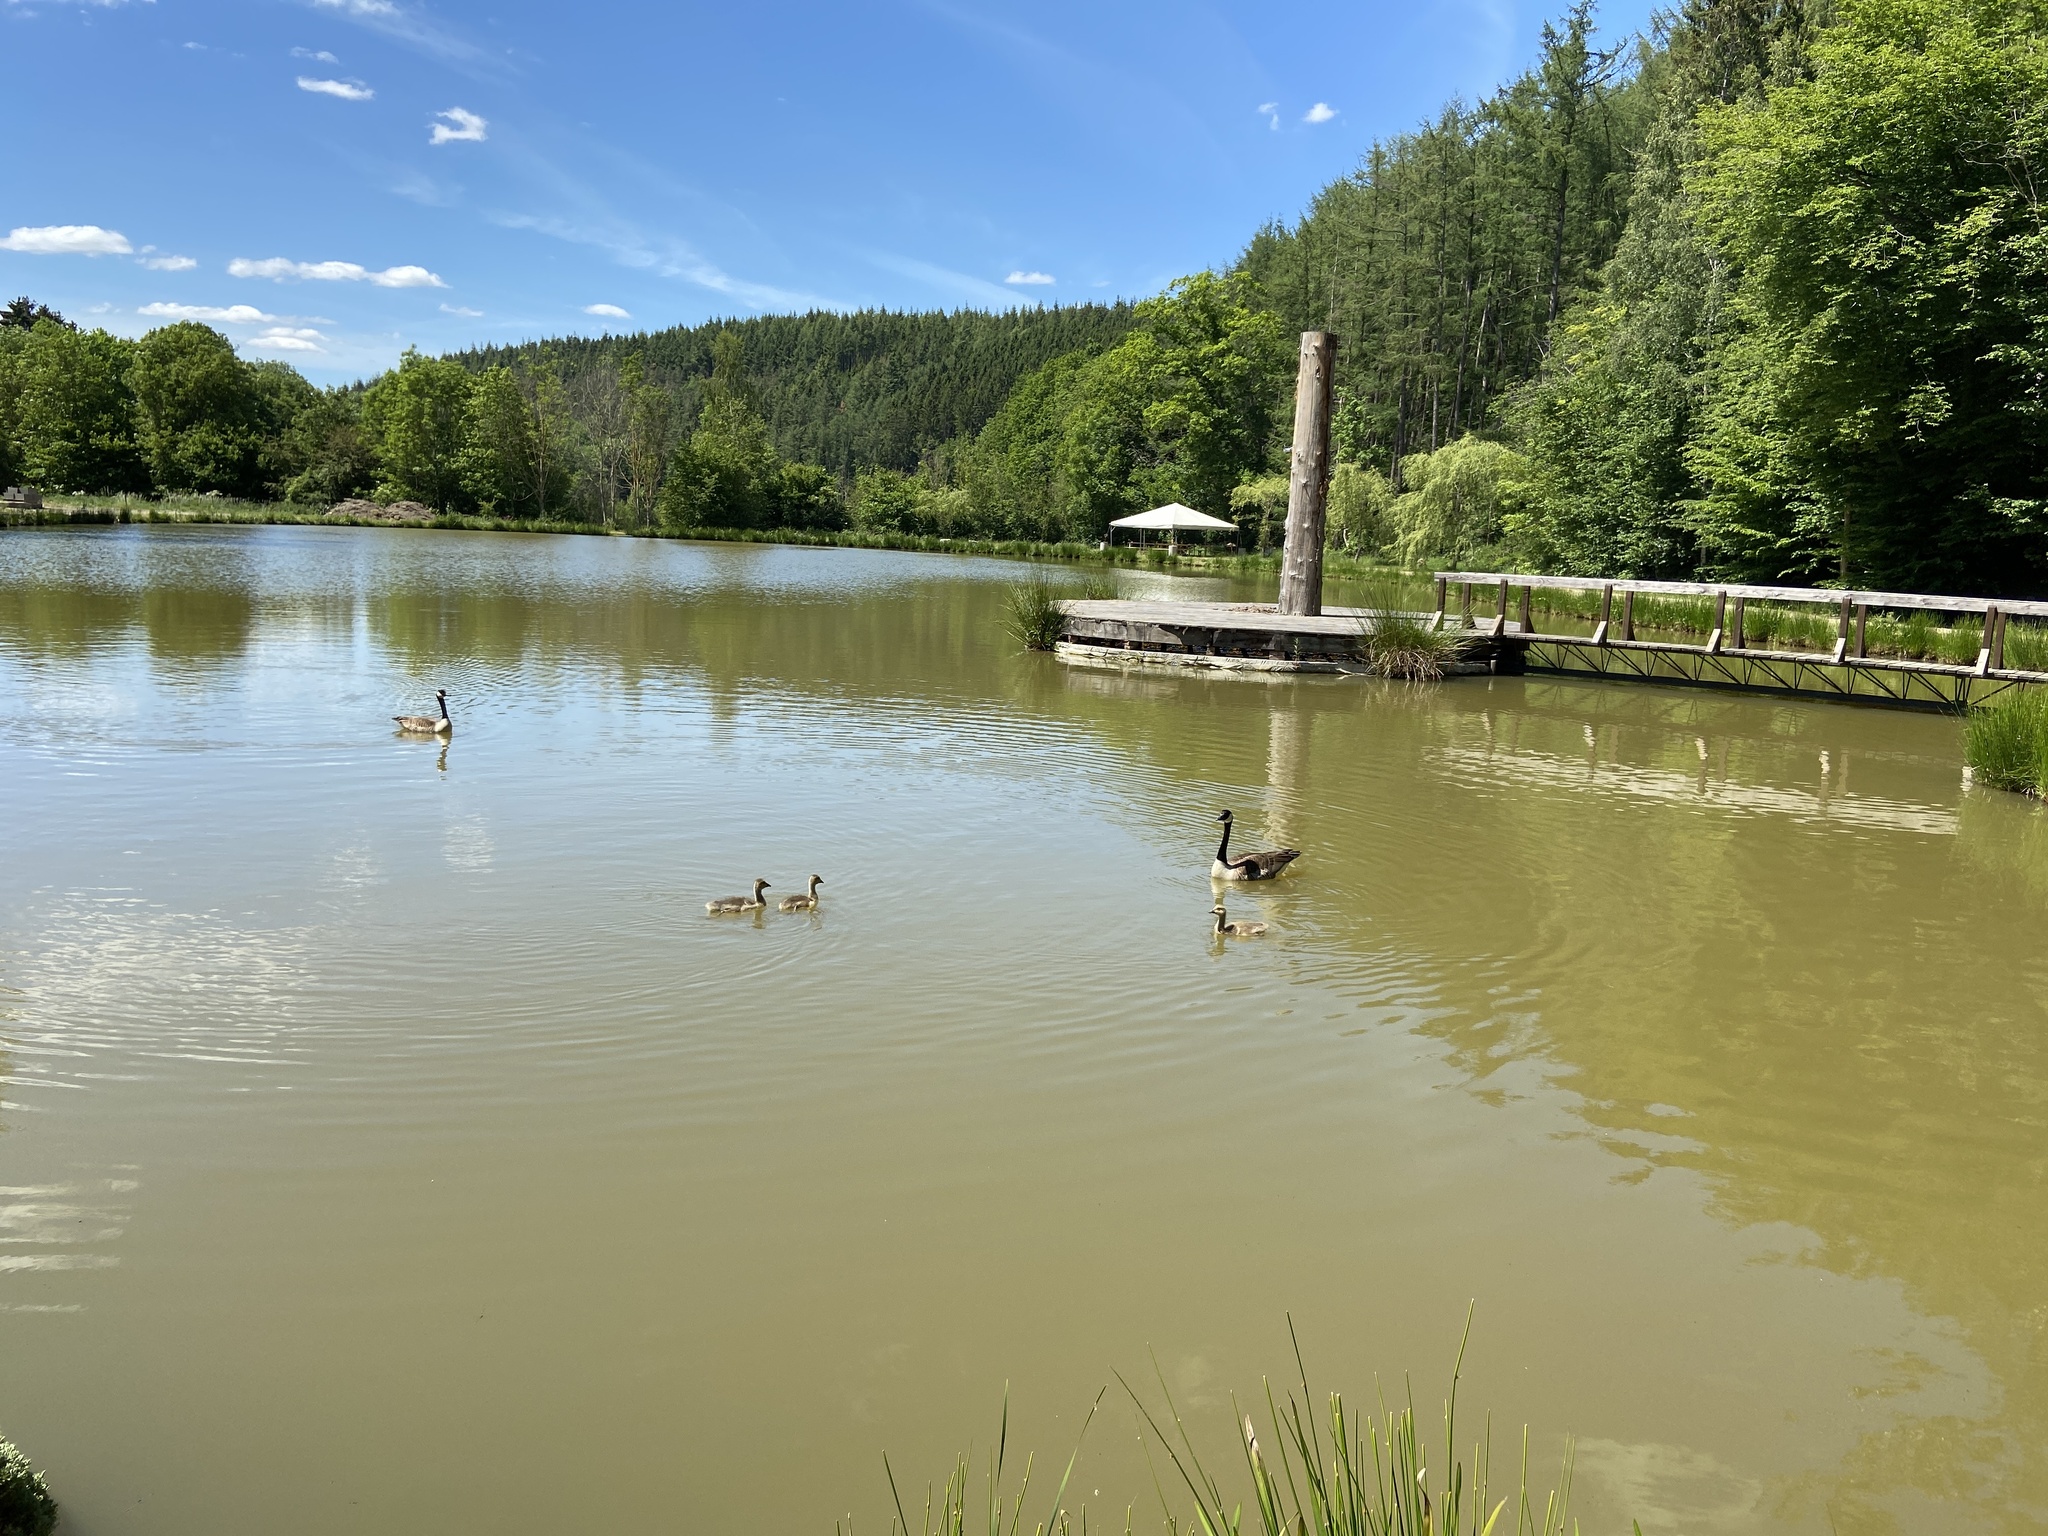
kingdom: Animalia
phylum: Chordata
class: Aves
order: Anseriformes
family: Anatidae
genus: Branta
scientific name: Branta canadensis
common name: Canada goose
